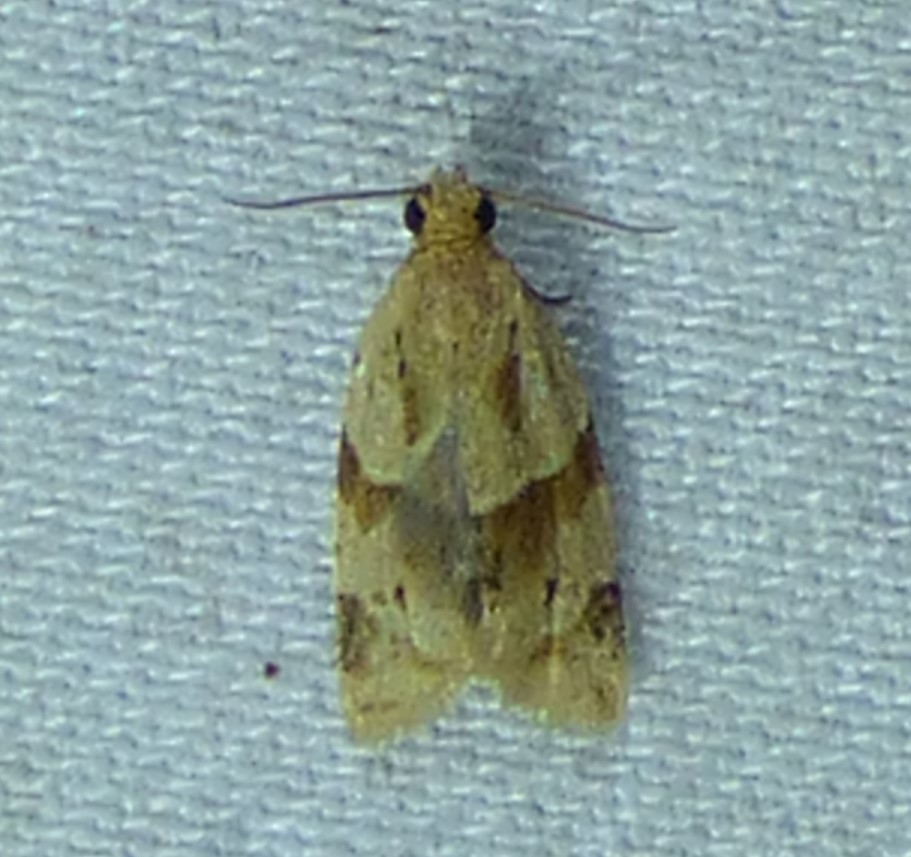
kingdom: Animalia
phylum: Arthropoda
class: Insecta
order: Lepidoptera
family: Tortricidae
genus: Clepsis
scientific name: Clepsis peritana
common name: Garden tortrix
